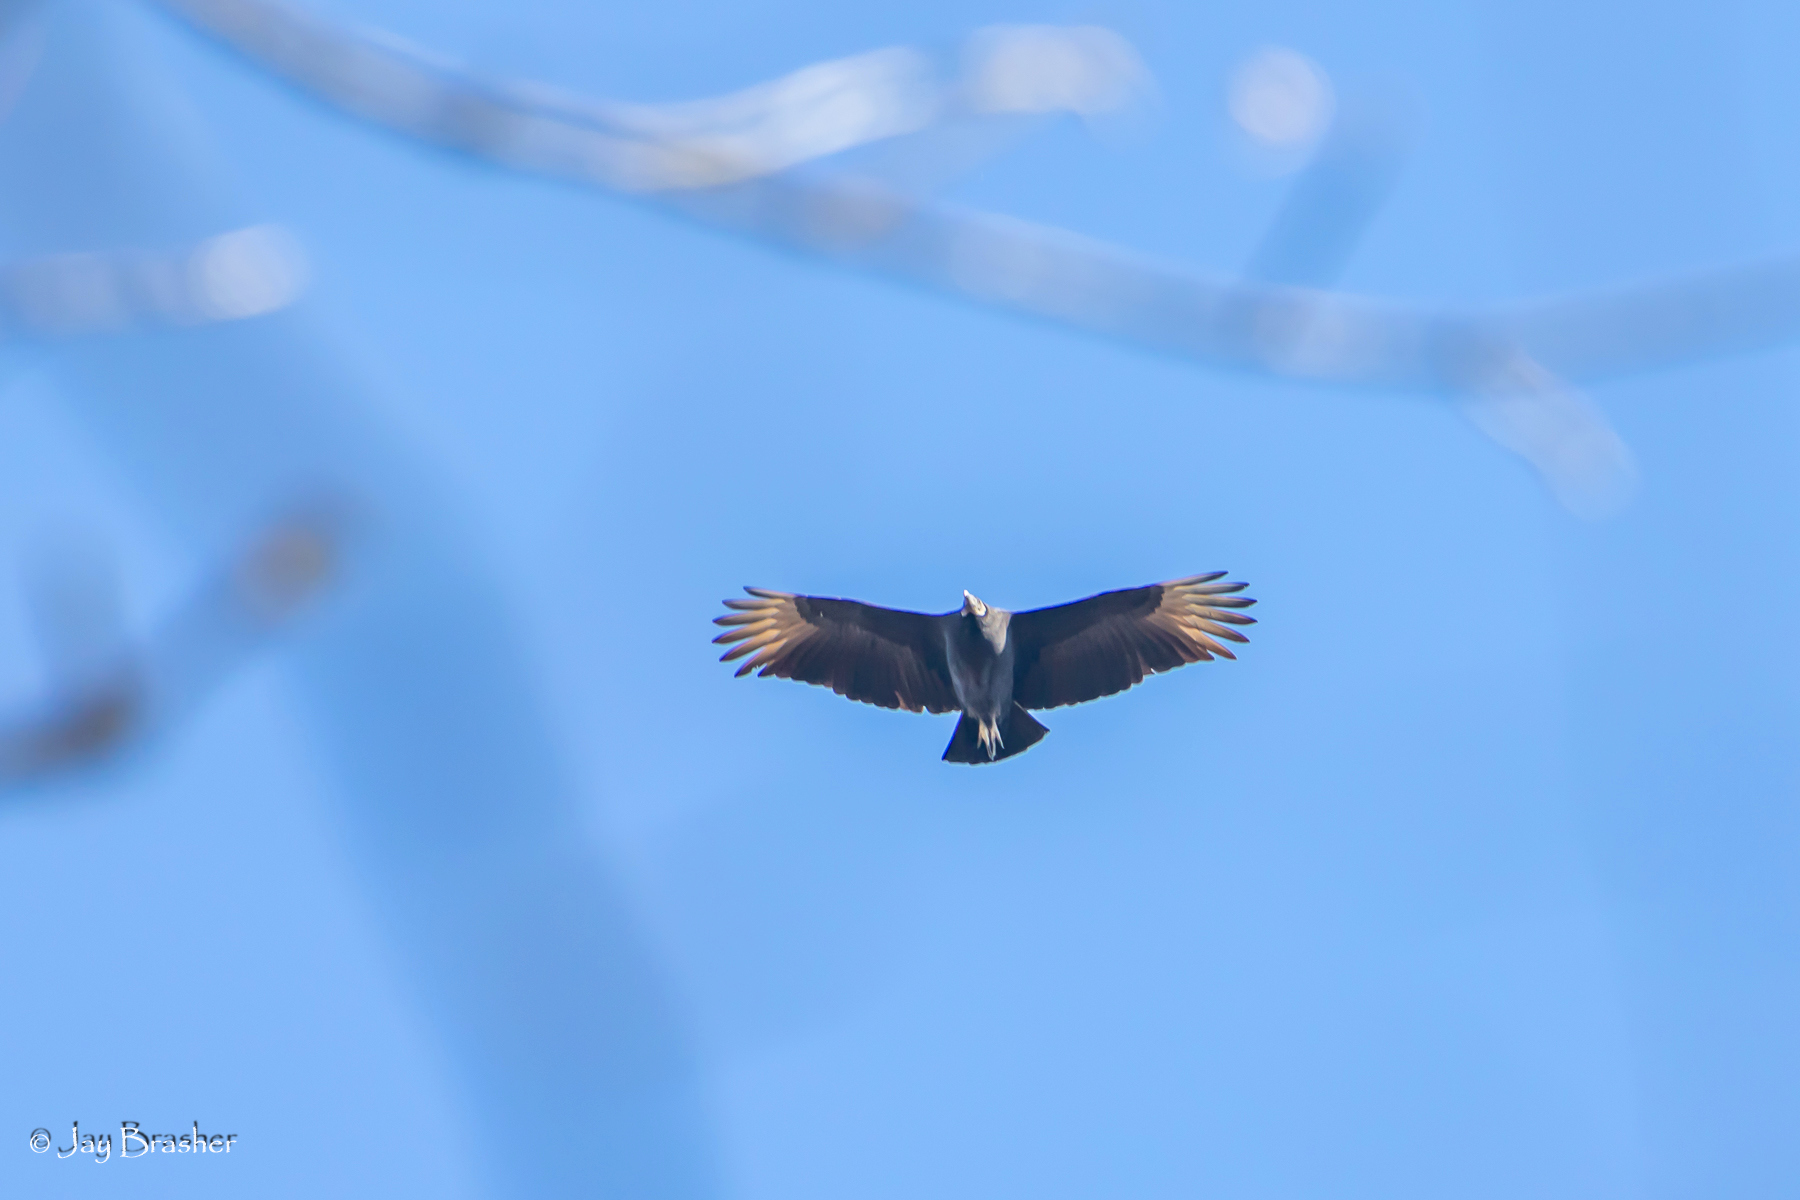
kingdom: Animalia
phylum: Chordata
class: Aves
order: Accipitriformes
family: Cathartidae
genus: Coragyps
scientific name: Coragyps atratus
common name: Black vulture
